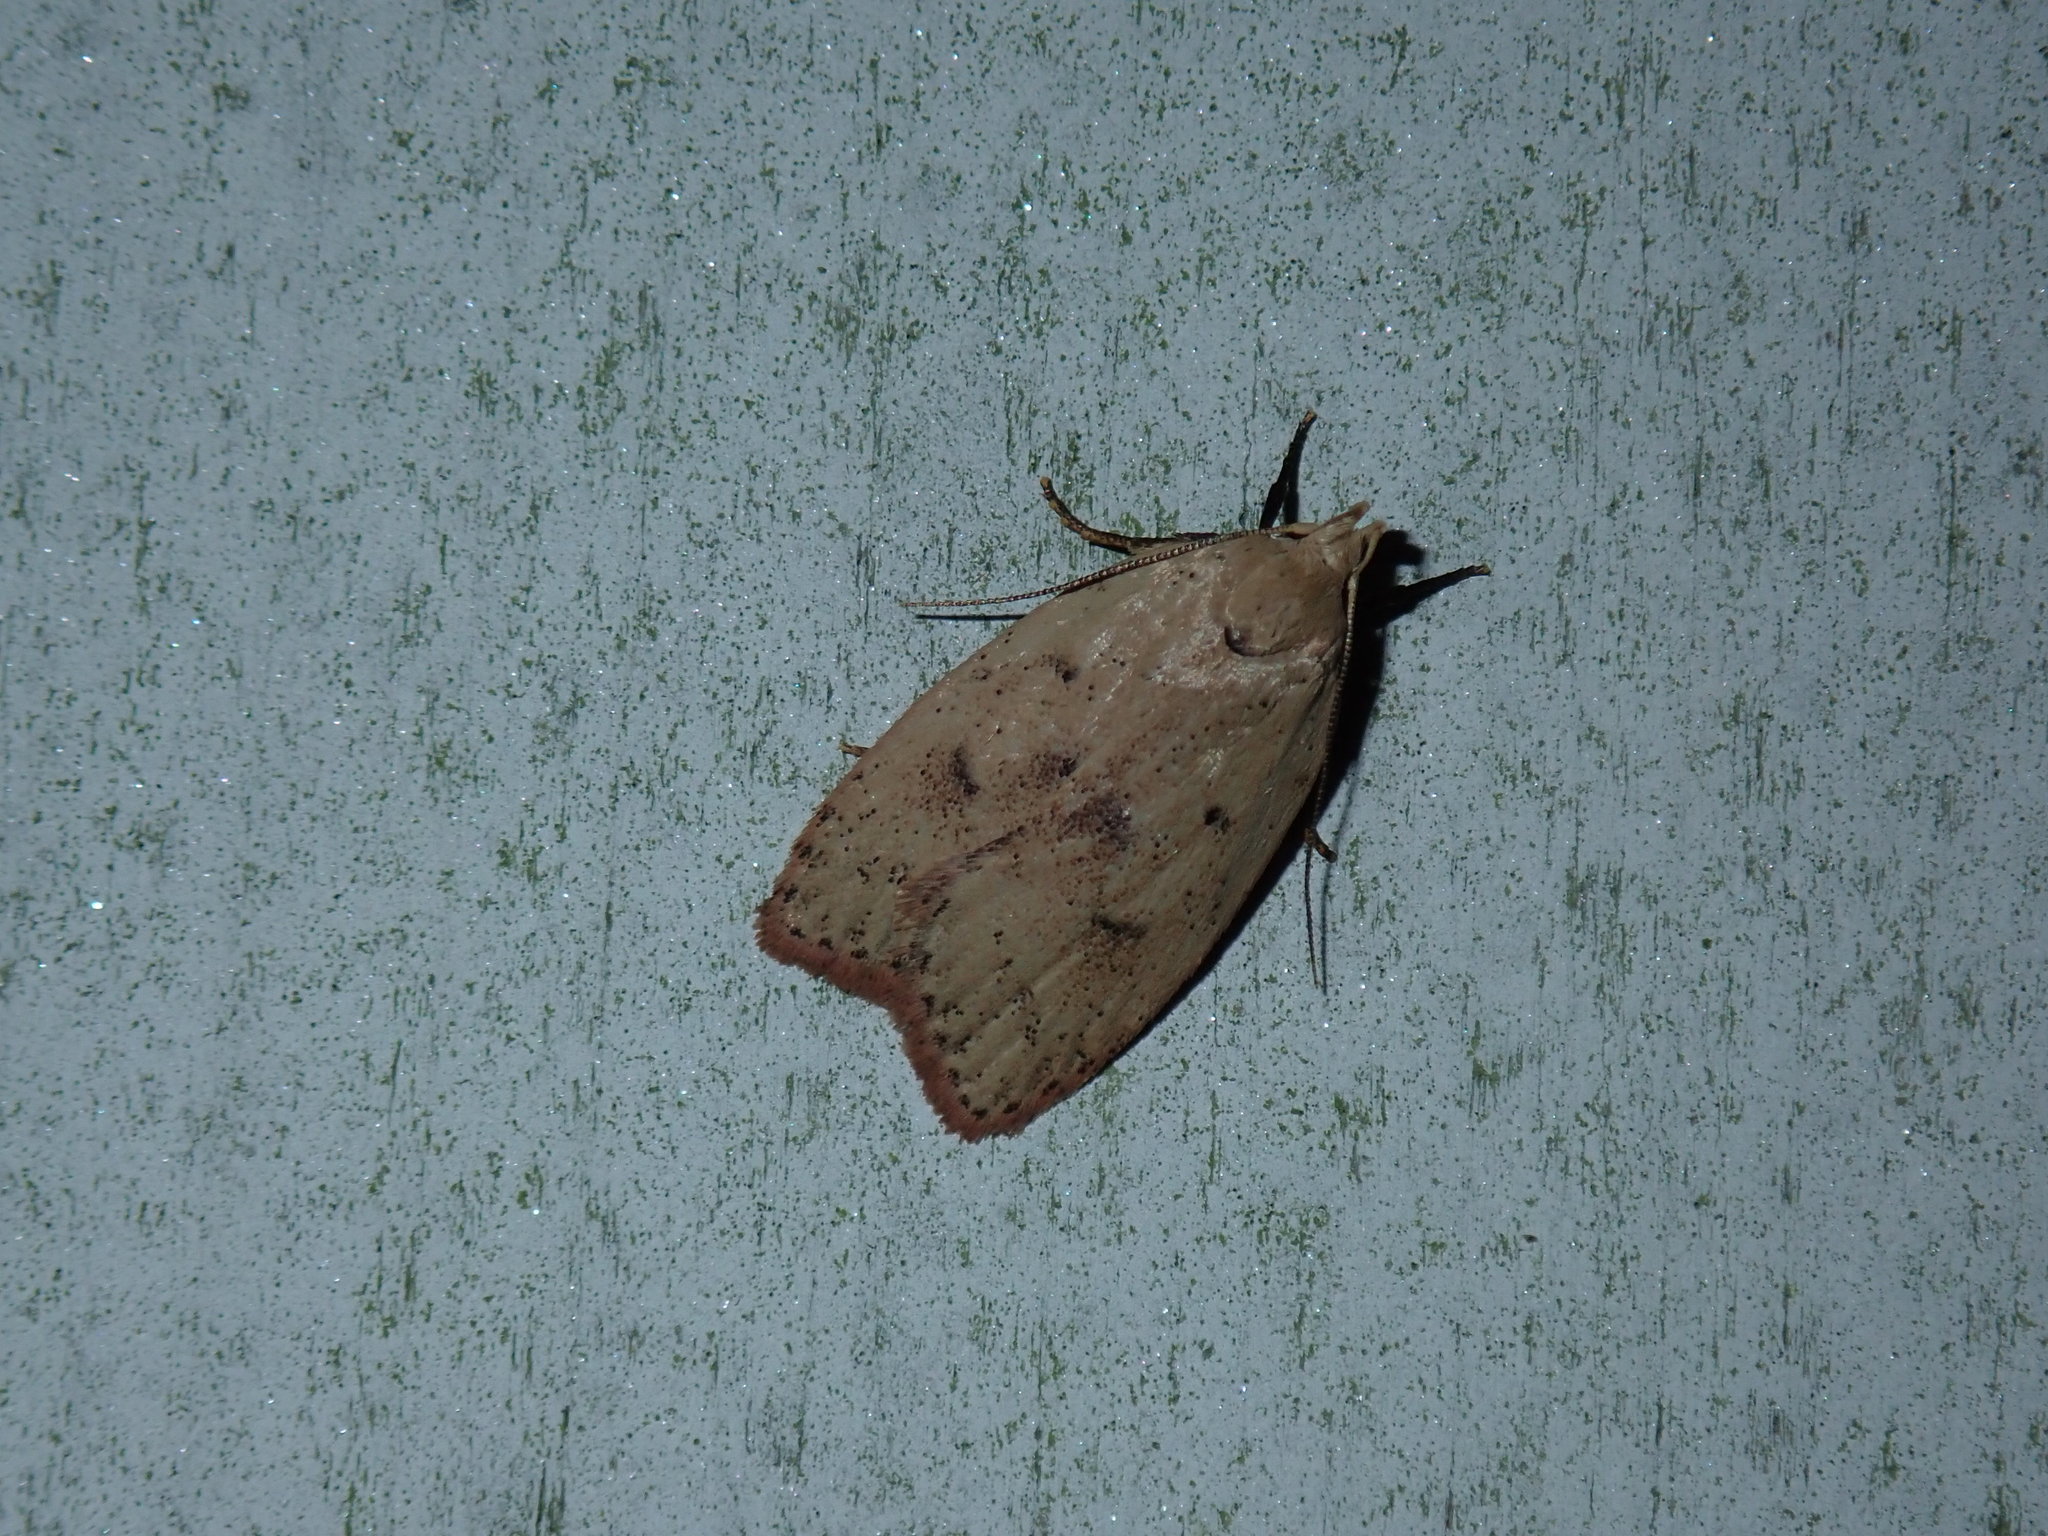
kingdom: Animalia
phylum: Arthropoda
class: Insecta
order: Lepidoptera
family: Peleopodidae
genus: Machimia
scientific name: Machimia tentoriferella
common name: Gold-striped leaftier moth
